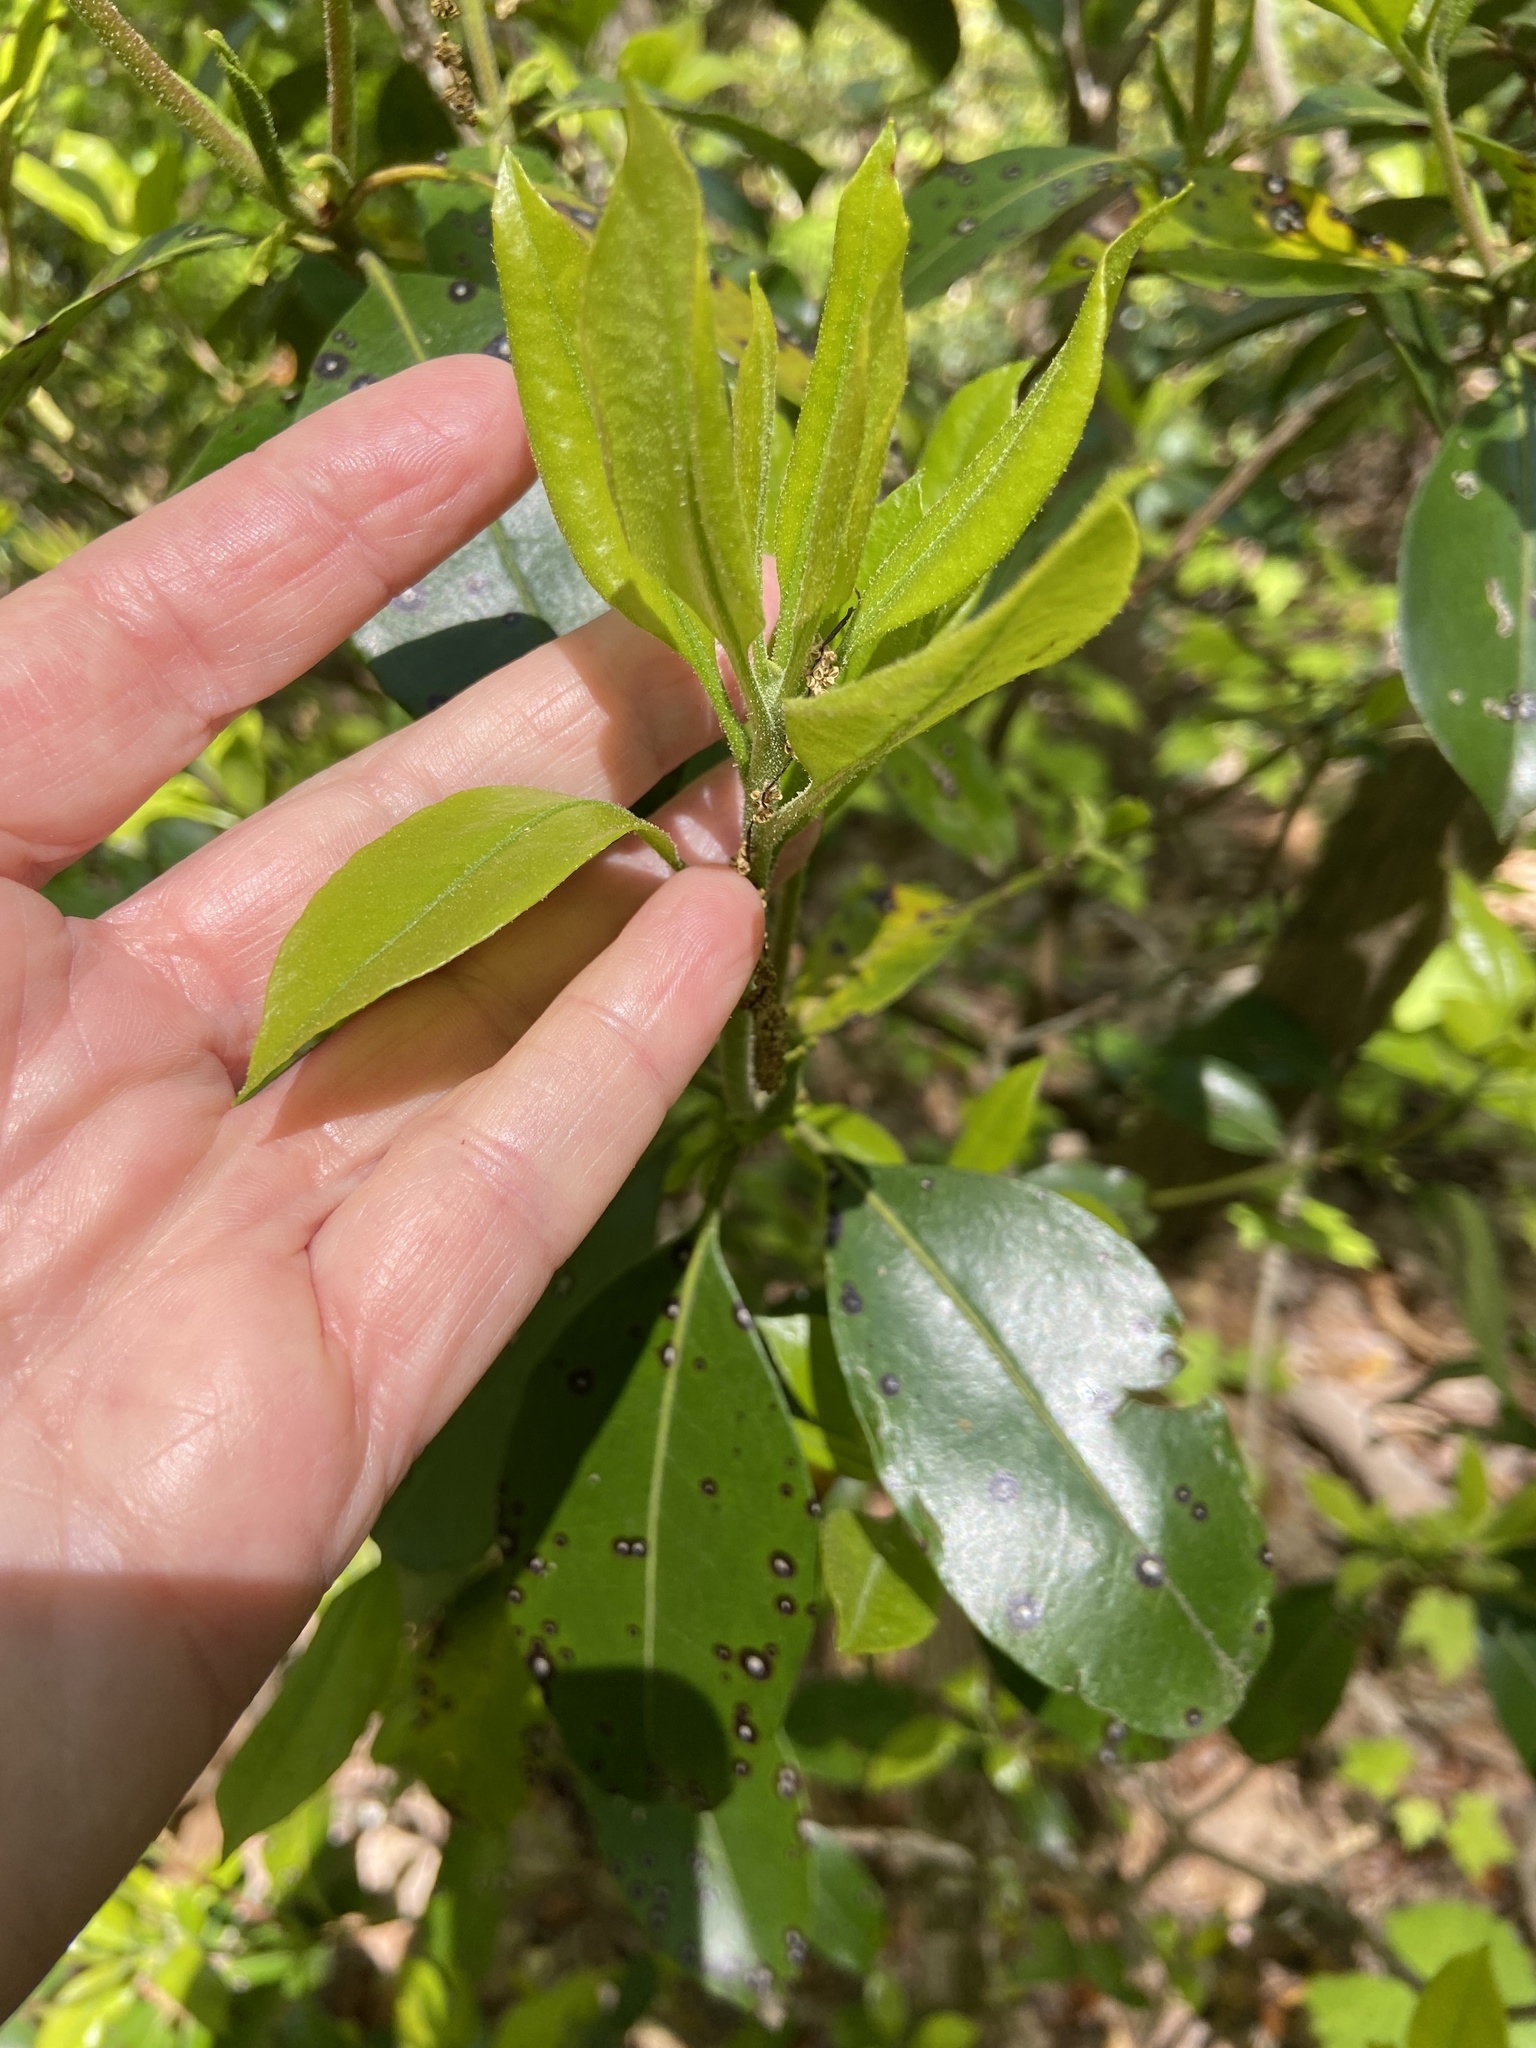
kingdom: Plantae
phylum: Tracheophyta
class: Magnoliopsida
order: Ericales
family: Ericaceae
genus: Kalmia
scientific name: Kalmia latifolia
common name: Mountain-laurel
